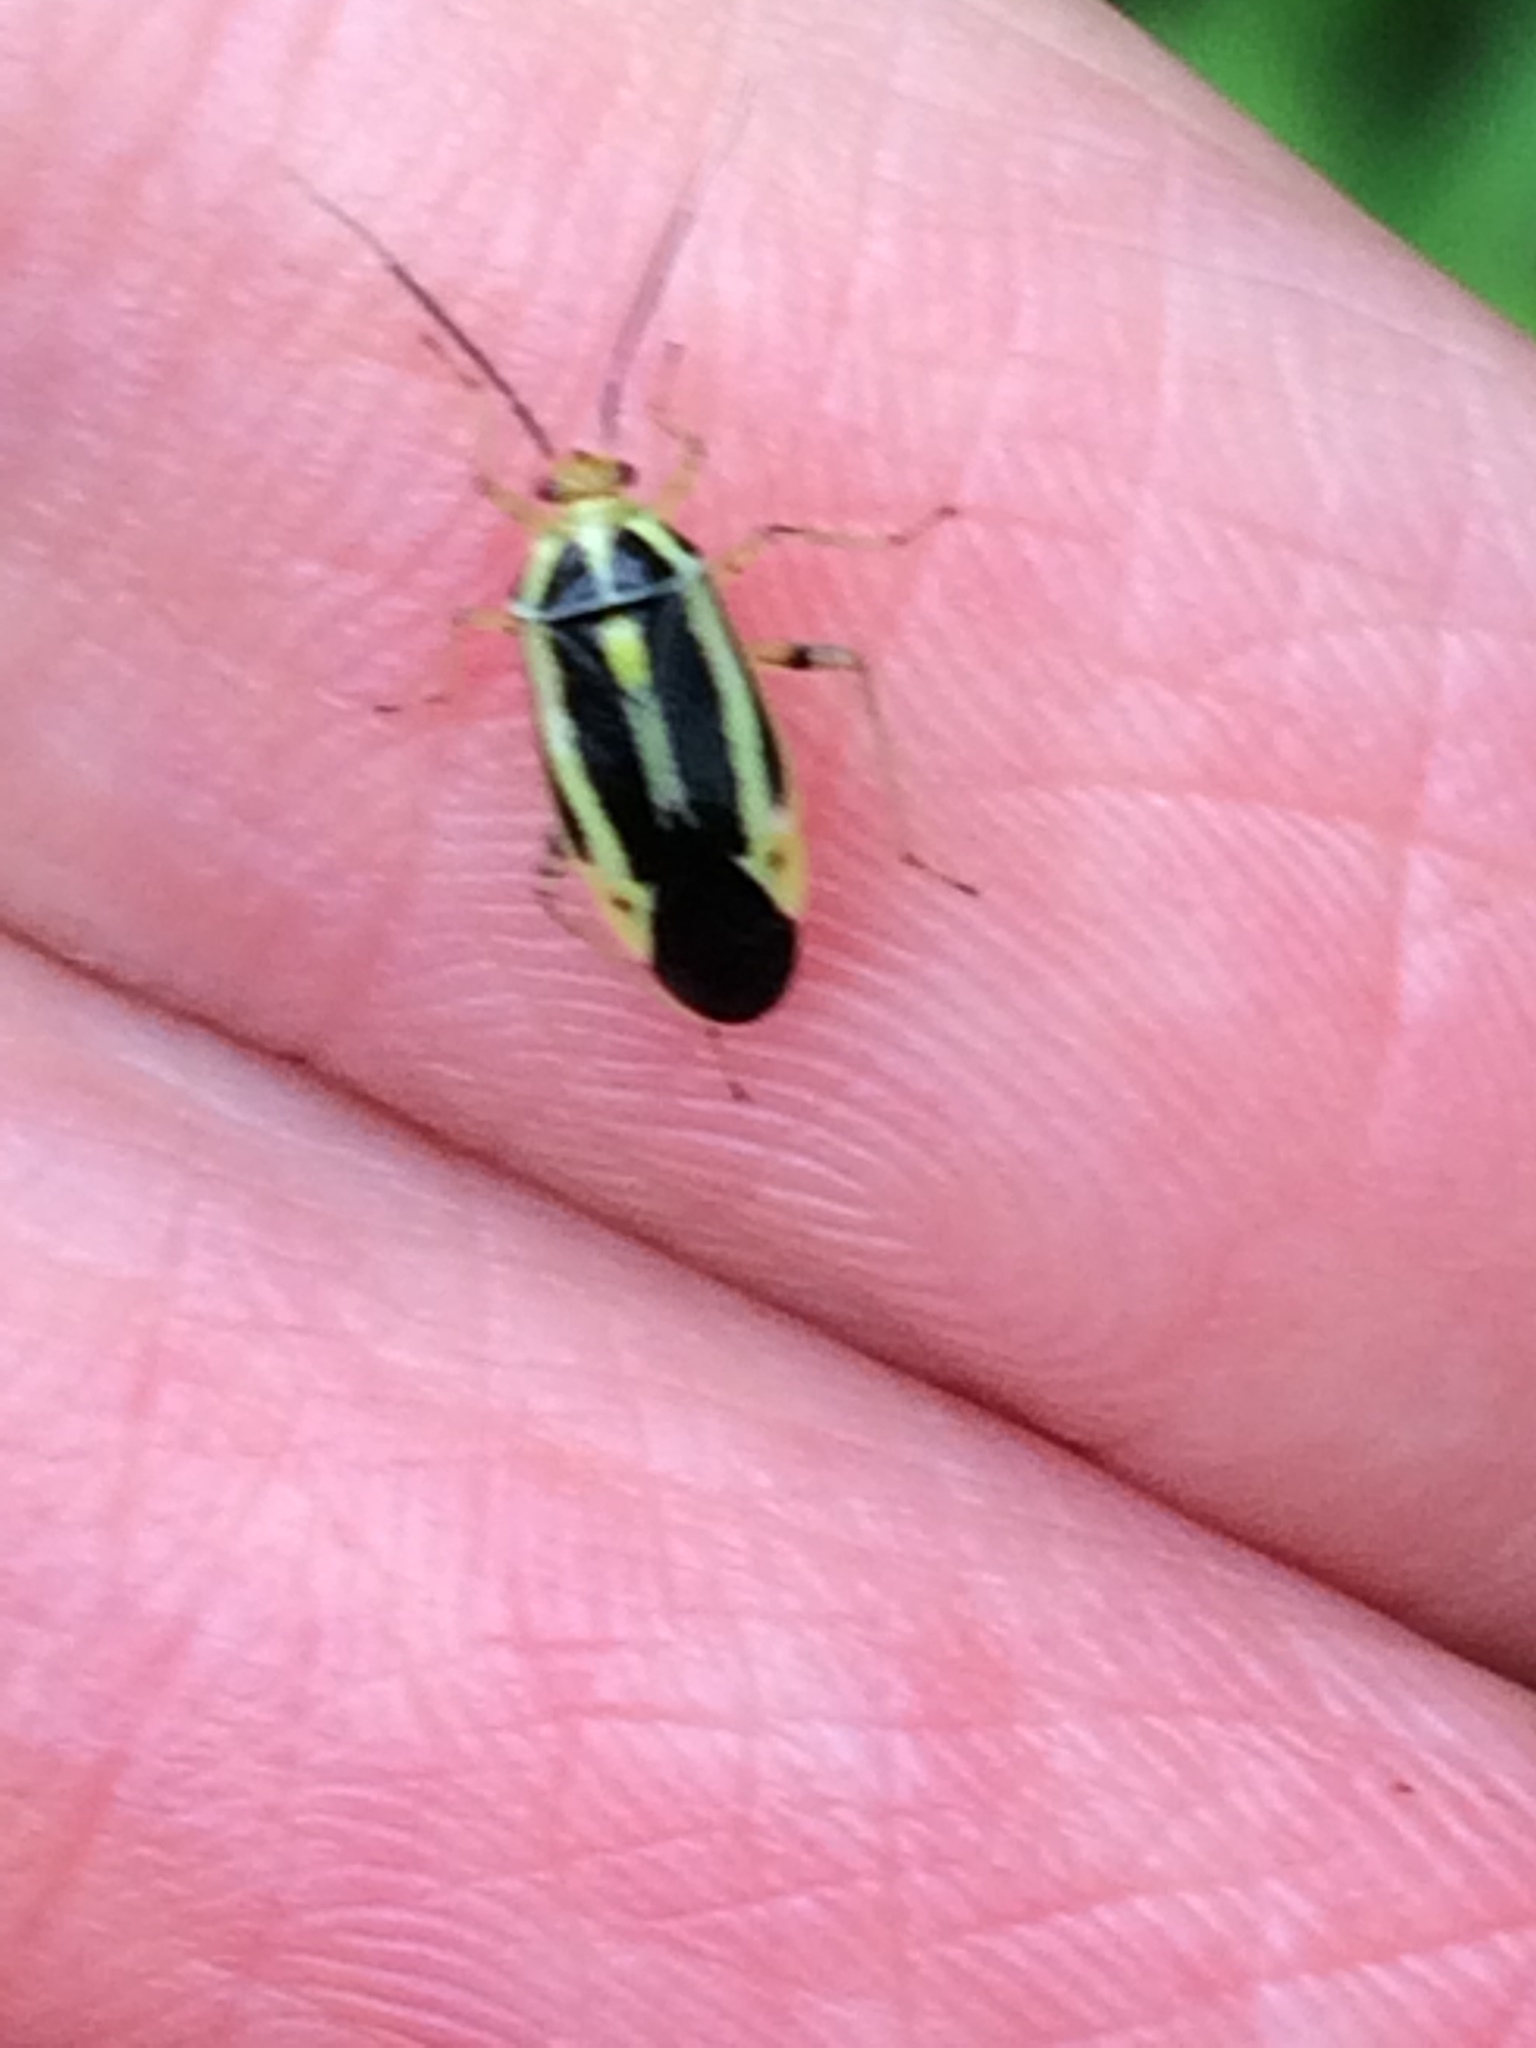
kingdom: Animalia
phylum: Arthropoda
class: Insecta
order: Hemiptera
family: Miridae
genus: Poecilocapsus
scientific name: Poecilocapsus lineatus
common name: Four-lined plant bug
